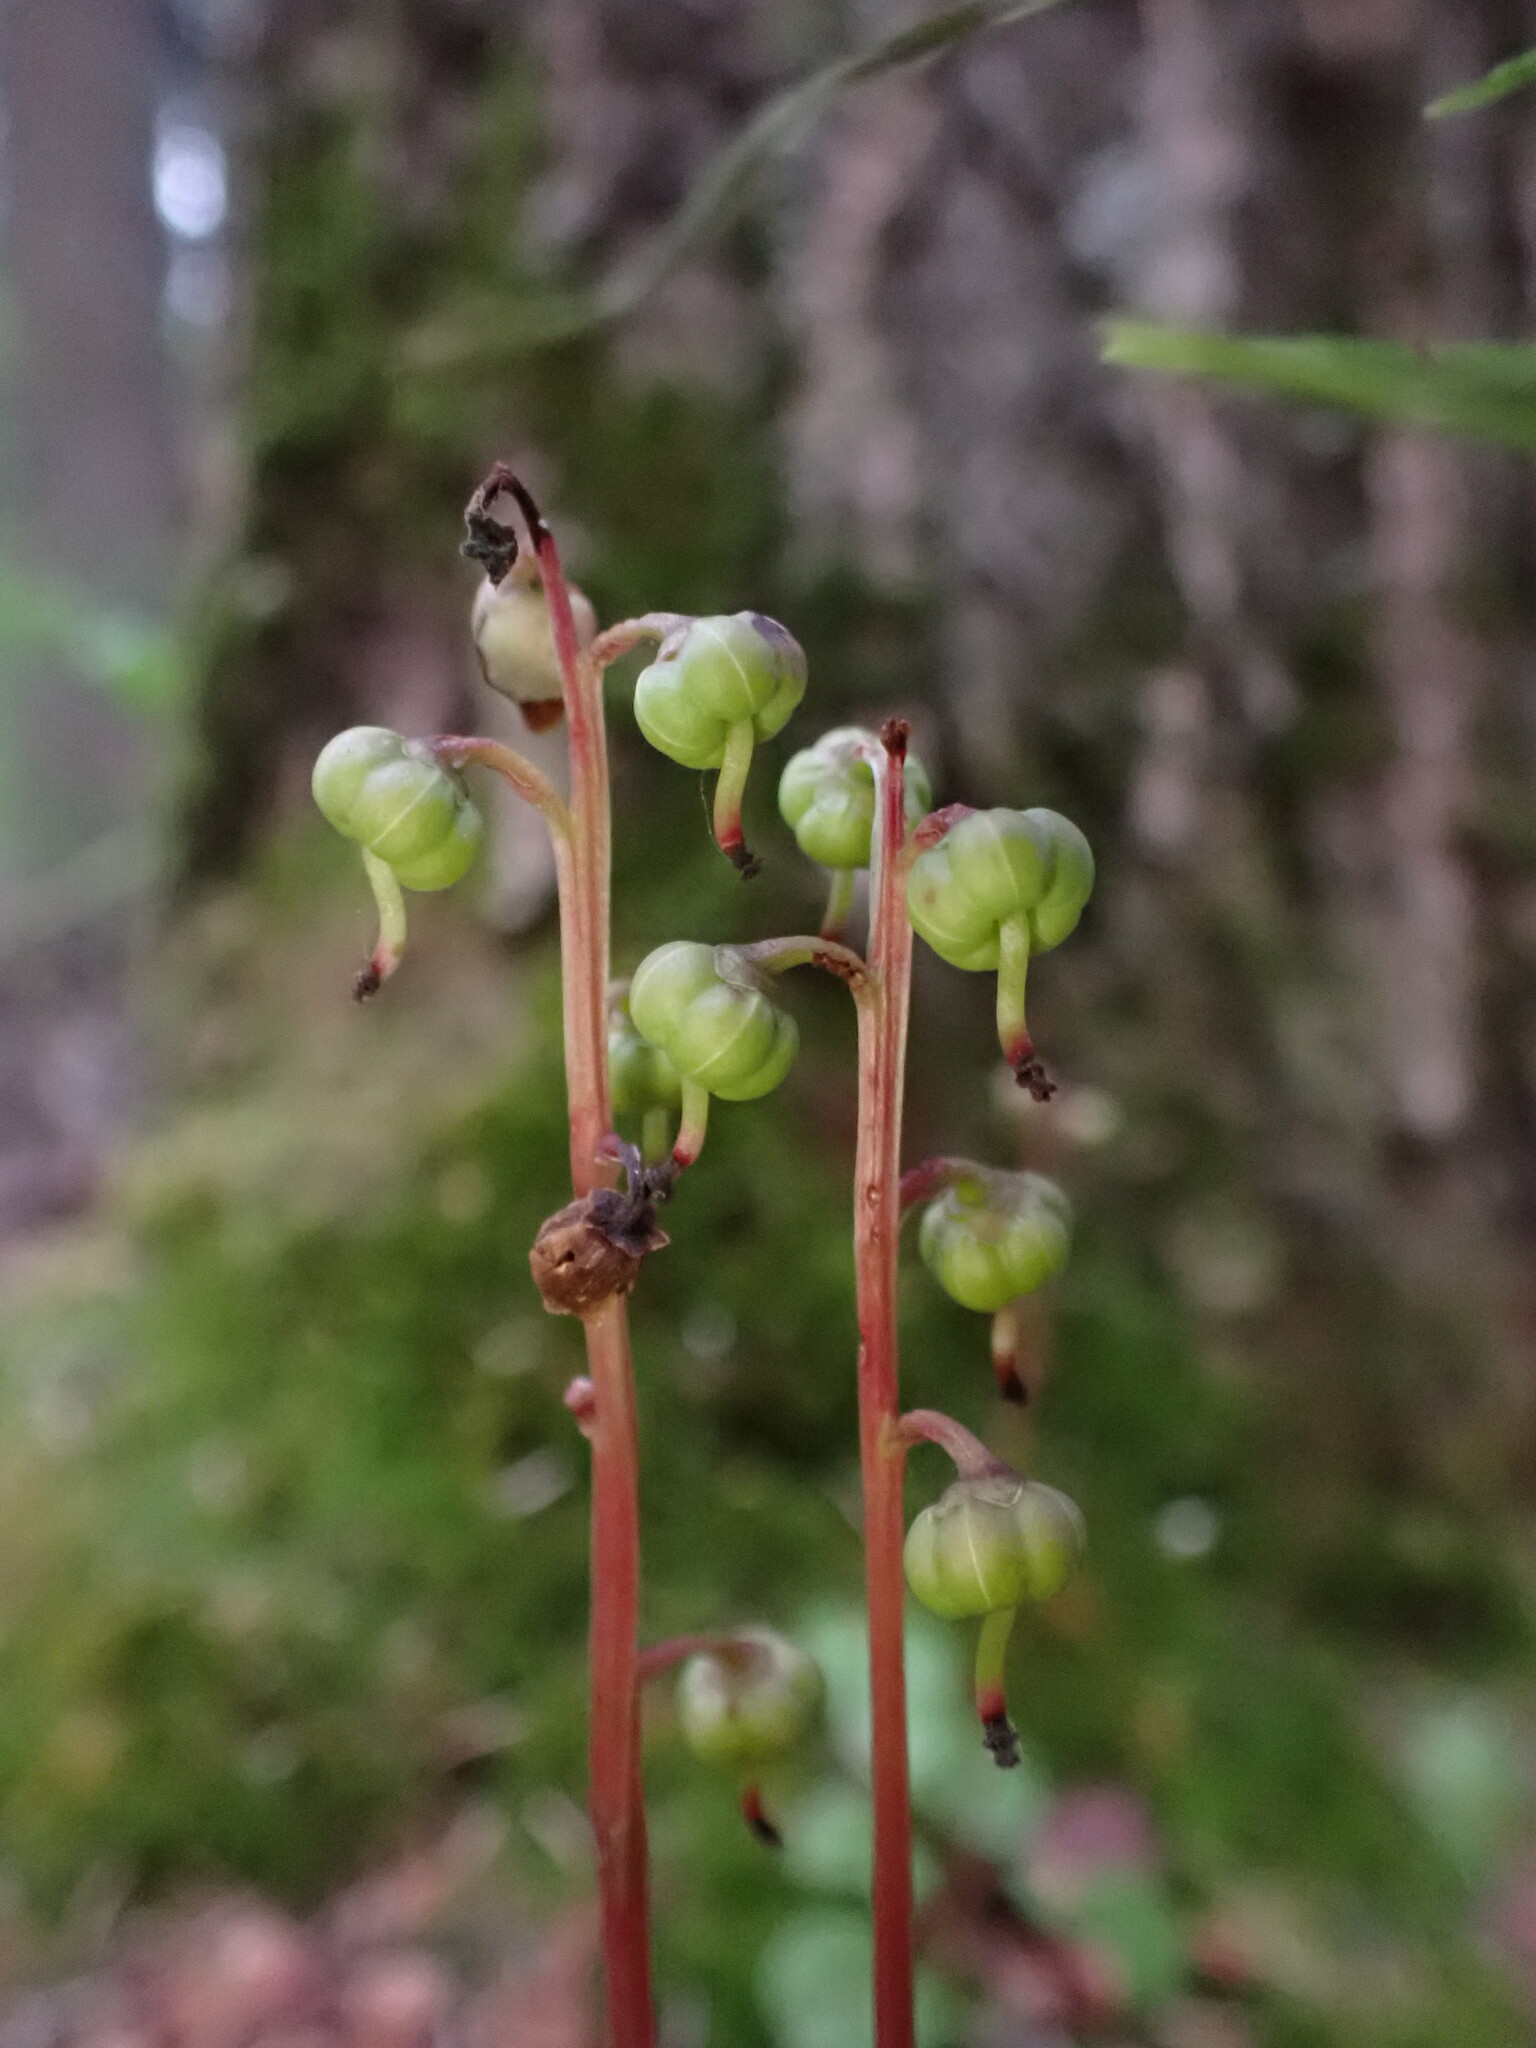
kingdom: Plantae
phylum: Tracheophyta
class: Magnoliopsida
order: Ericales
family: Ericaceae
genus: Pyrola
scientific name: Pyrola chlorantha
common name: Green wintergreen
